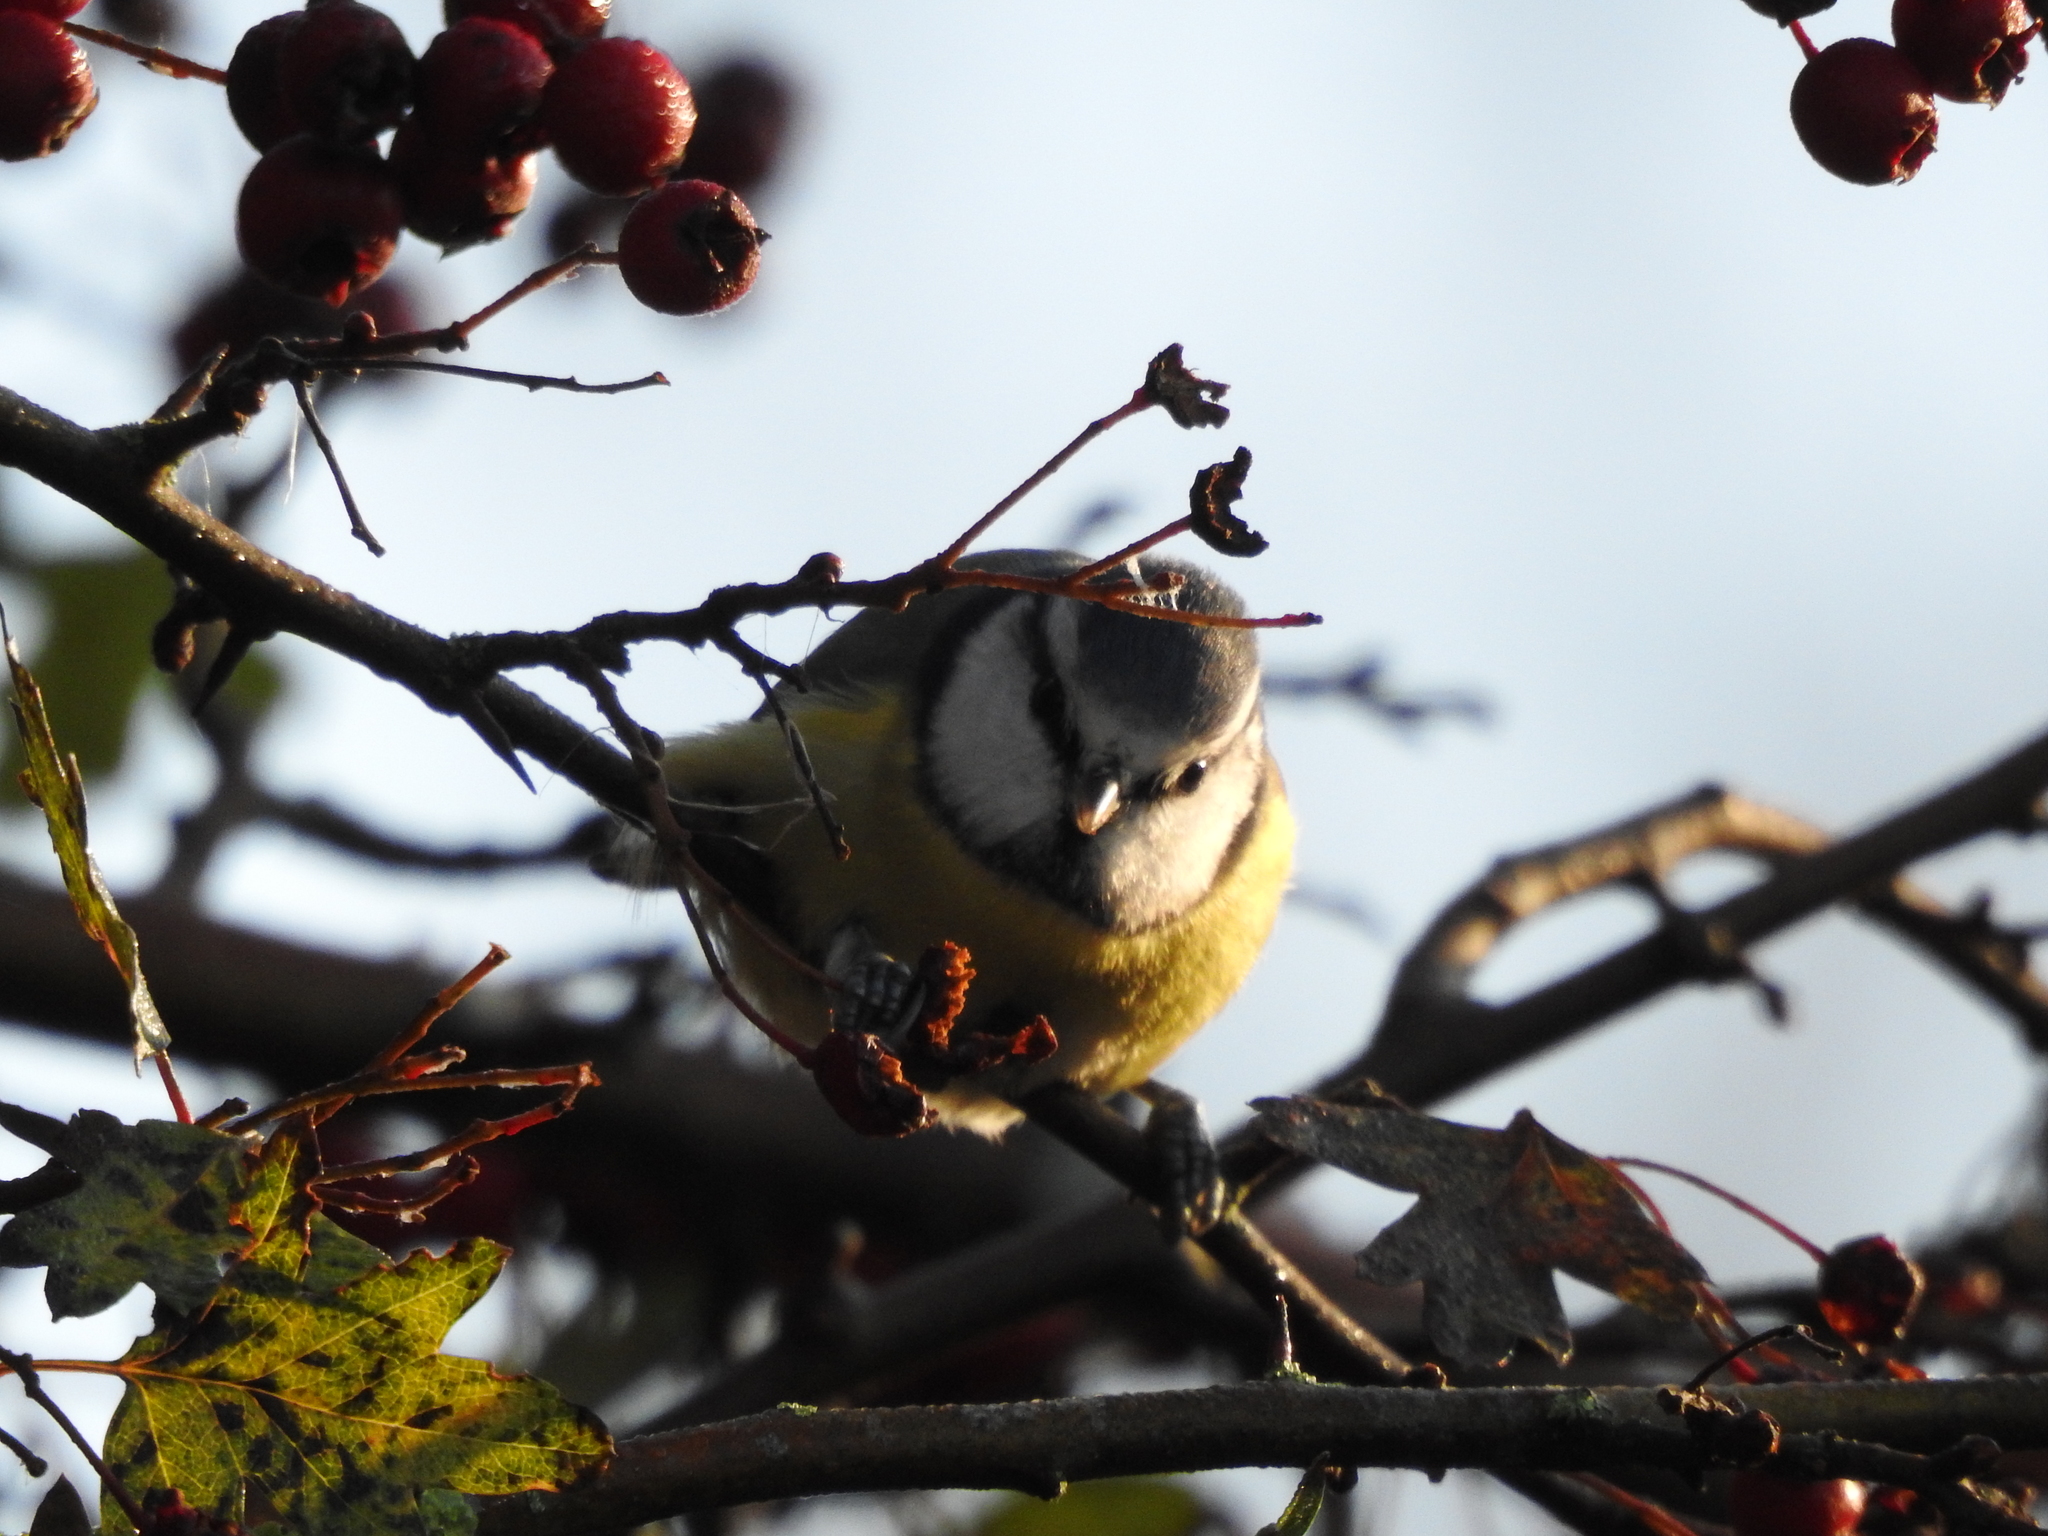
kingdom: Animalia
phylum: Chordata
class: Aves
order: Passeriformes
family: Paridae
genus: Cyanistes
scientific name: Cyanistes caeruleus
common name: Eurasian blue tit
